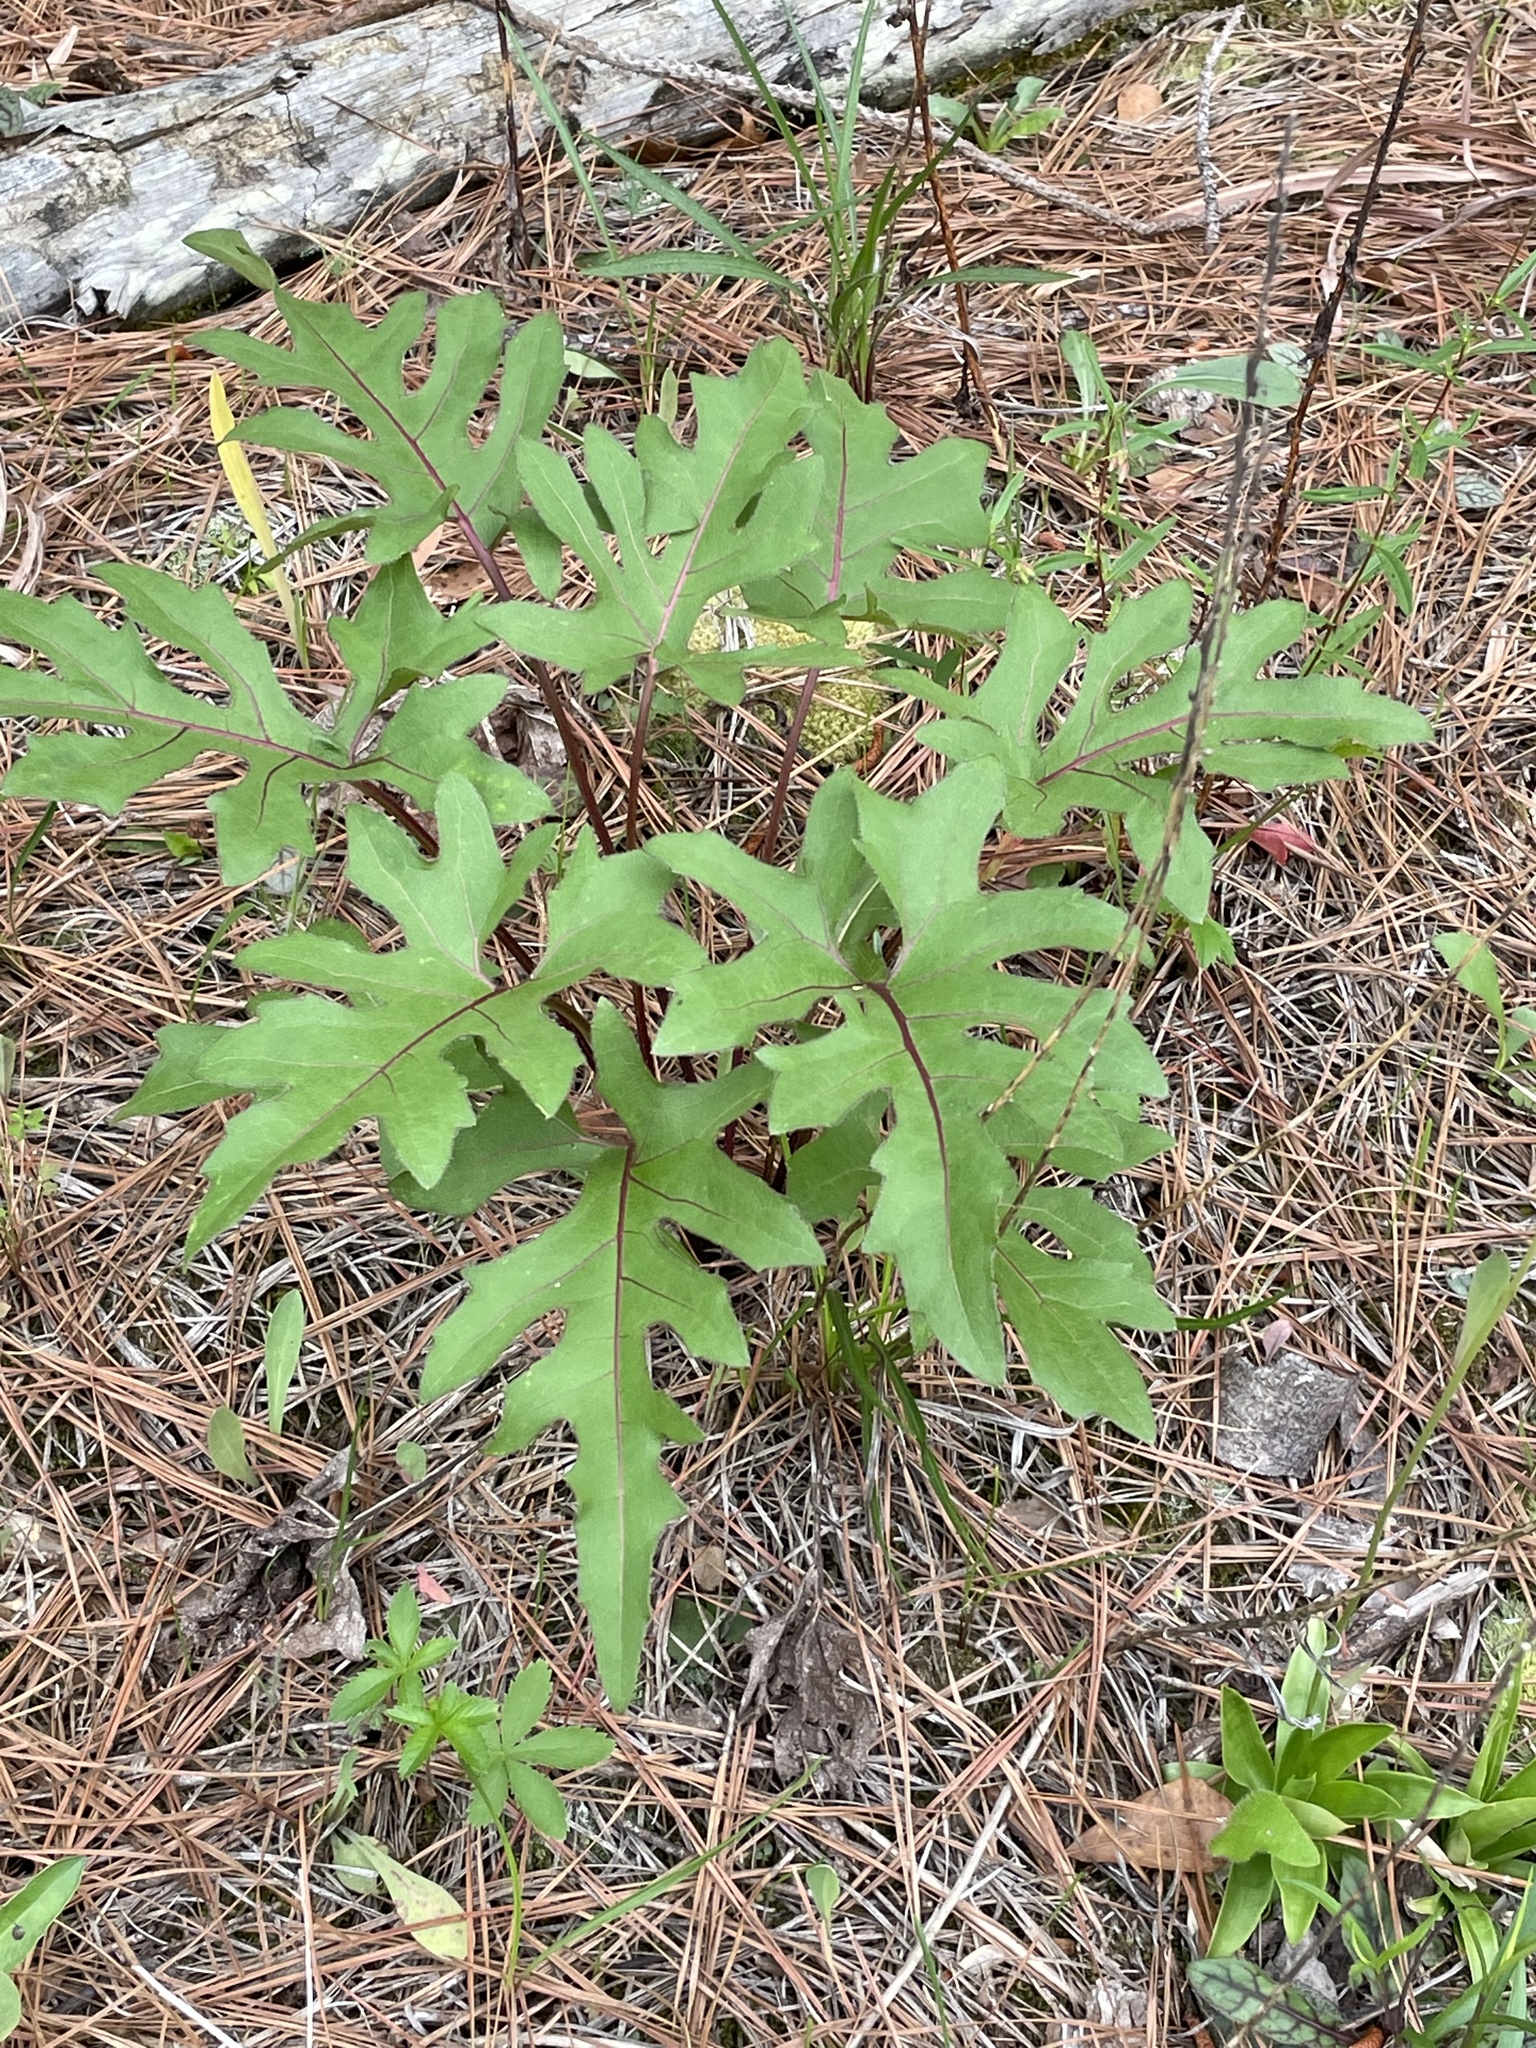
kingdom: Plantae
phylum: Tracheophyta
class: Magnoliopsida
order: Asterales
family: Asteraceae
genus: Silphium
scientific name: Silphium compositum
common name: Lesser basal-leaf rosinweed
